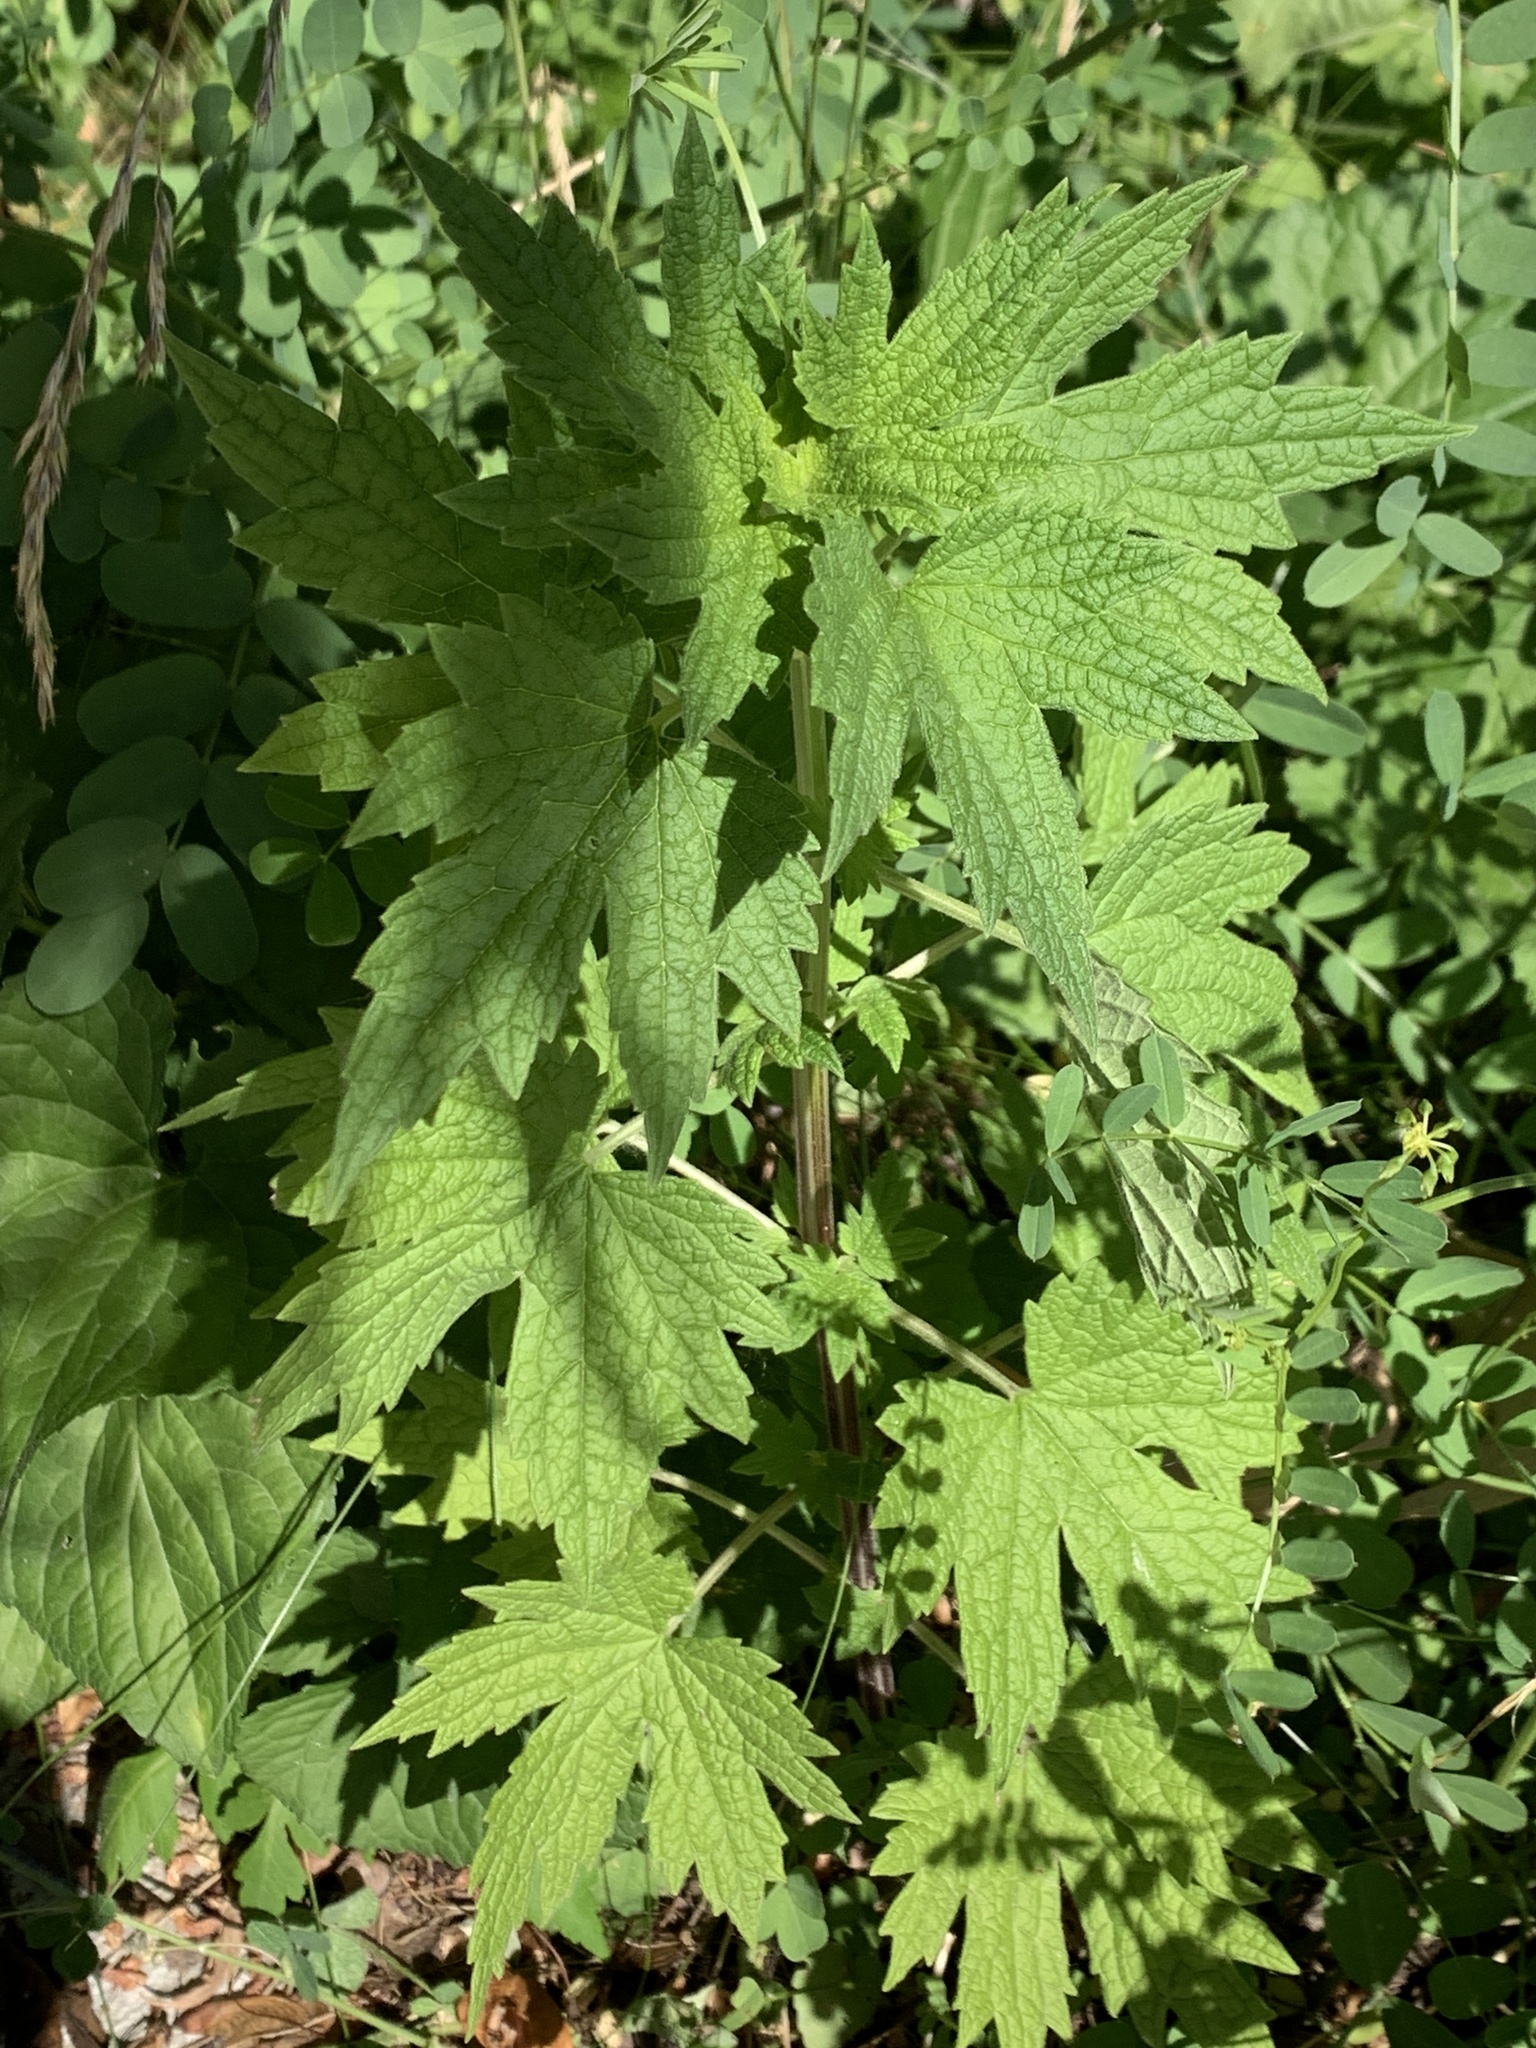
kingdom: Plantae
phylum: Tracheophyta
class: Magnoliopsida
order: Lamiales
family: Lamiaceae
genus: Leonurus
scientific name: Leonurus cardiaca
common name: Motherwort
